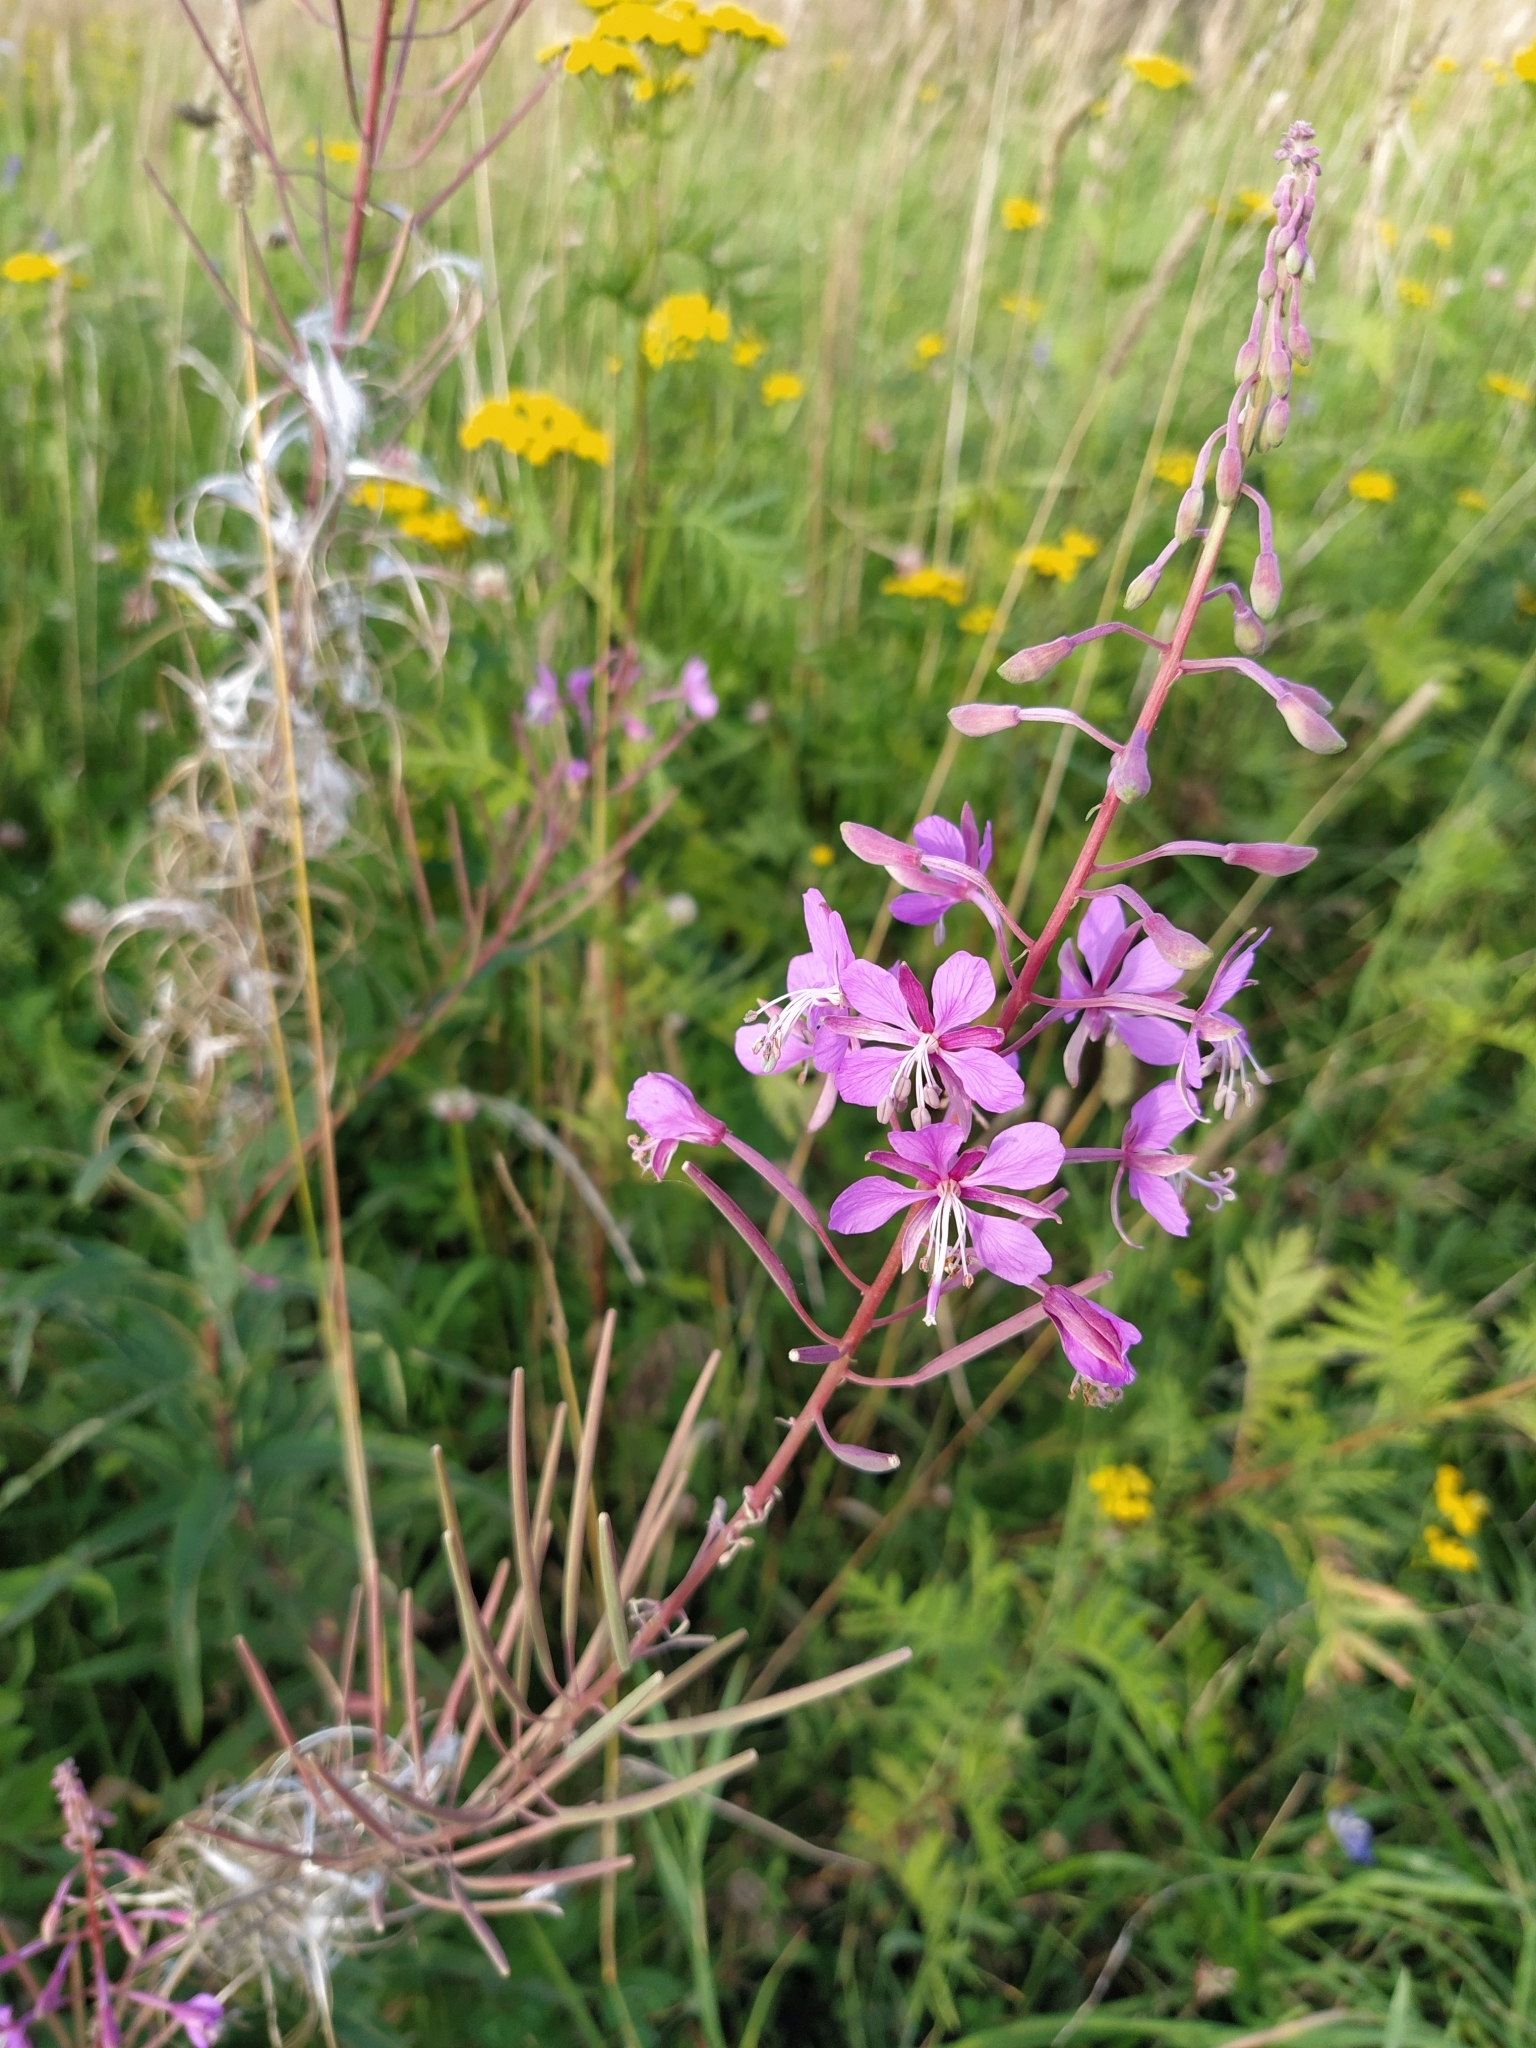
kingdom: Plantae
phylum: Tracheophyta
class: Magnoliopsida
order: Myrtales
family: Onagraceae
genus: Chamaenerion
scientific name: Chamaenerion angustifolium
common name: Fireweed
